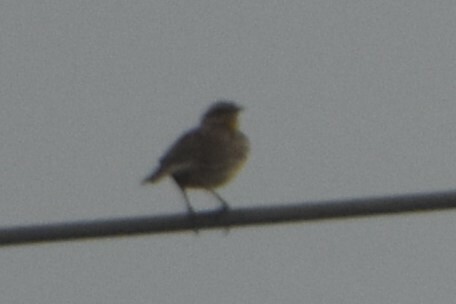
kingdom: Animalia
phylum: Chordata
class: Aves
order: Passeriformes
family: Icteridae
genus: Sturnella
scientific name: Sturnella magna
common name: Eastern meadowlark
